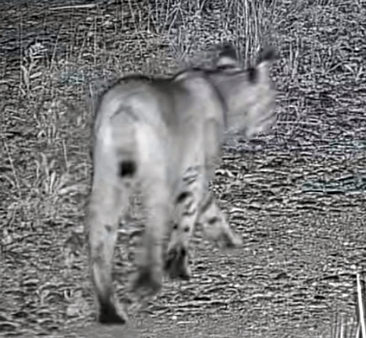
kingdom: Animalia
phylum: Chordata
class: Mammalia
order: Carnivora
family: Felidae
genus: Lynx
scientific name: Lynx rufus
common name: Bobcat
